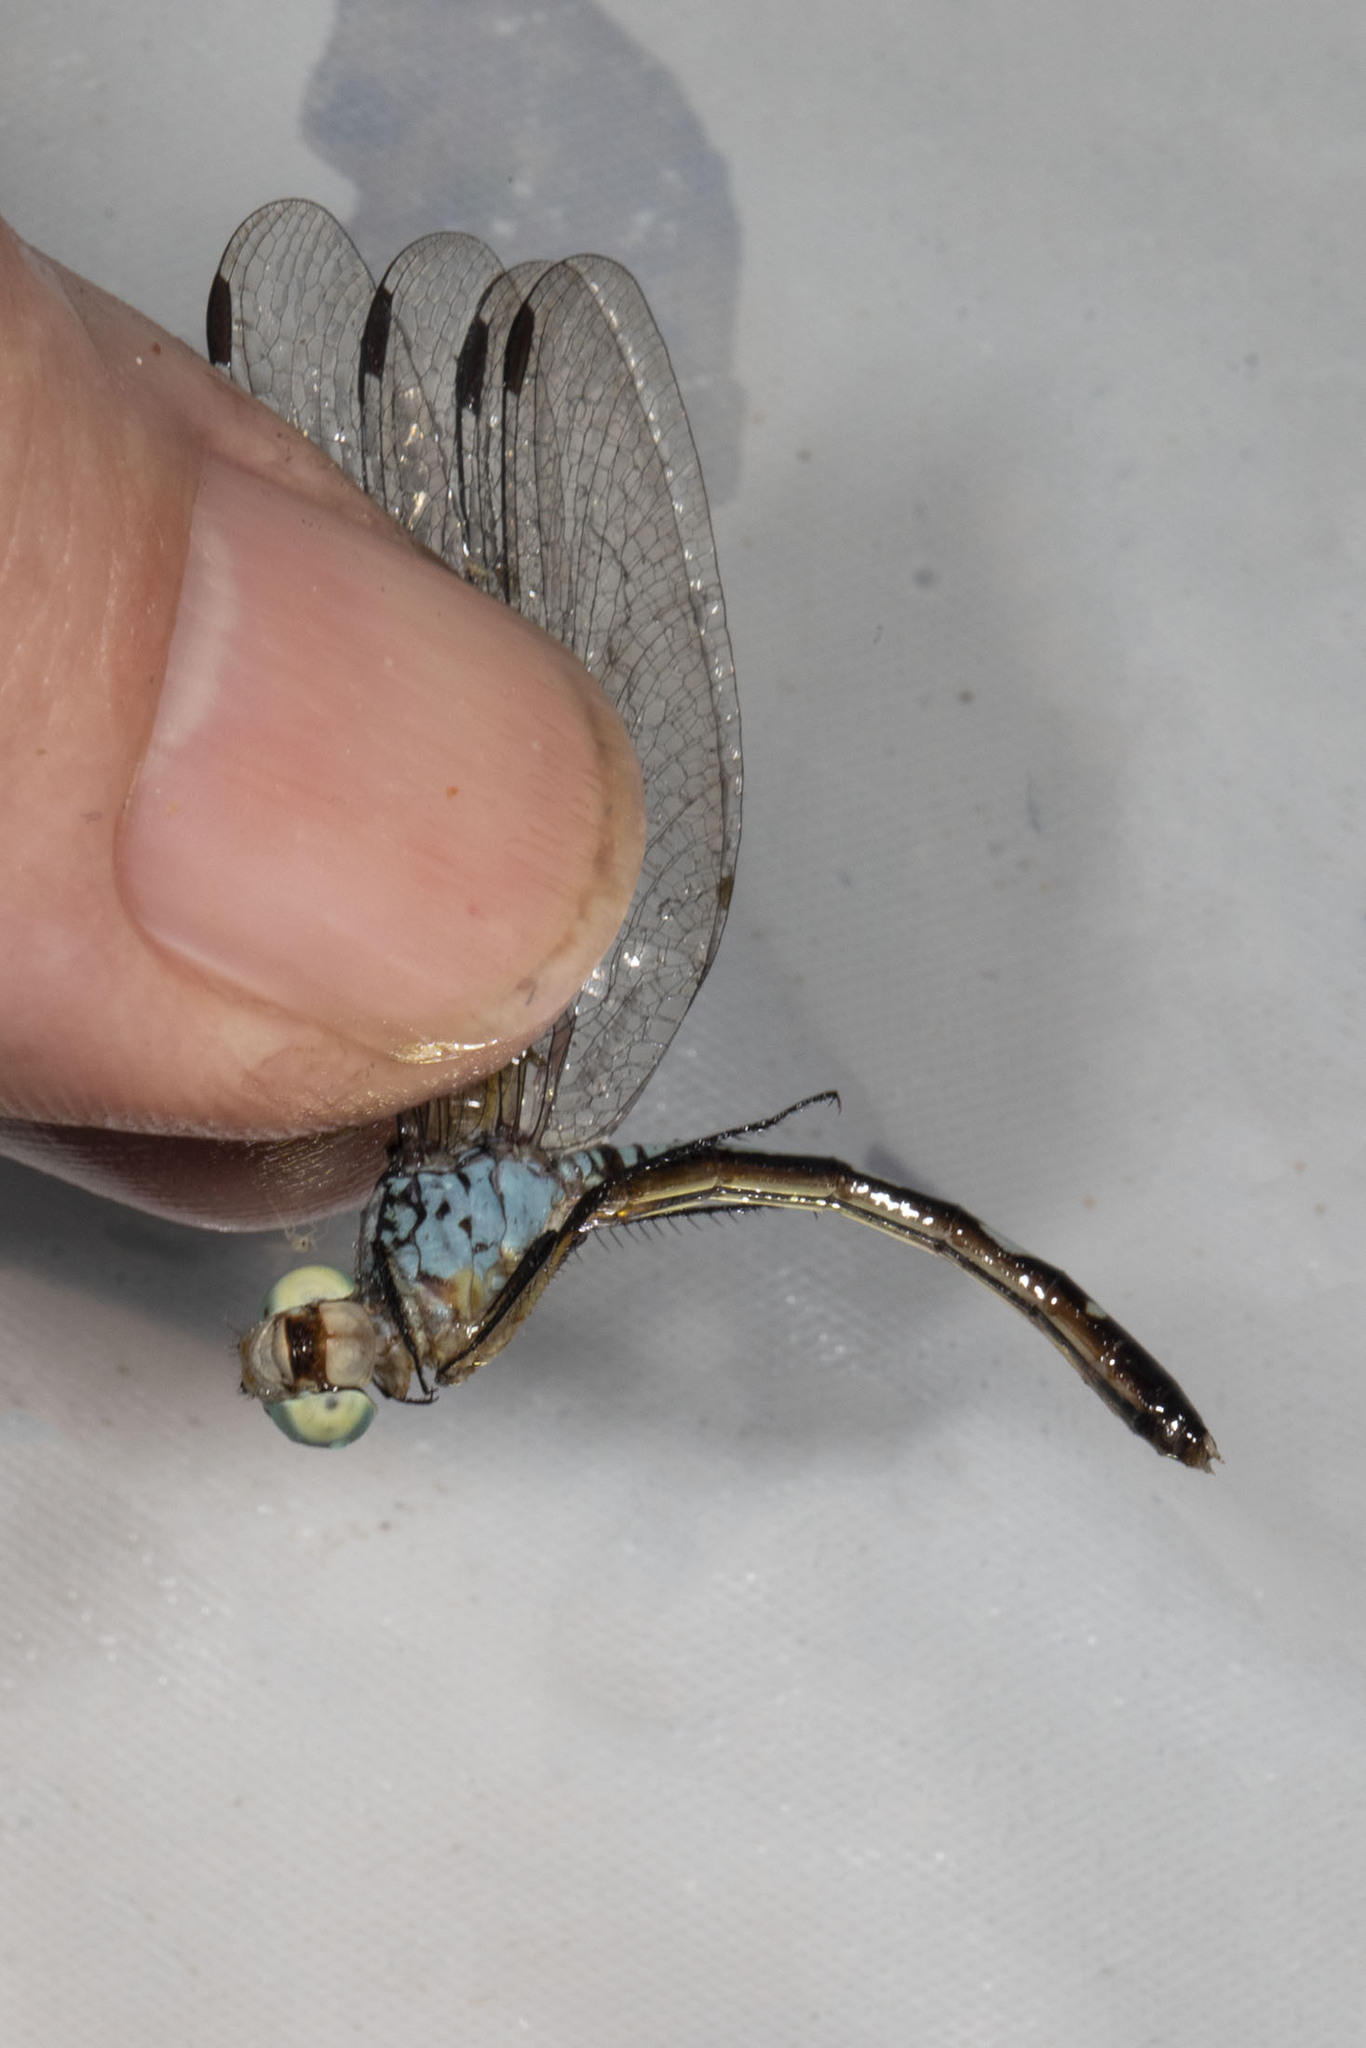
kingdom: Animalia
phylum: Arthropoda
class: Insecta
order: Odonata
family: Libellulidae
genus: Anatya
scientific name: Anatya guttata
